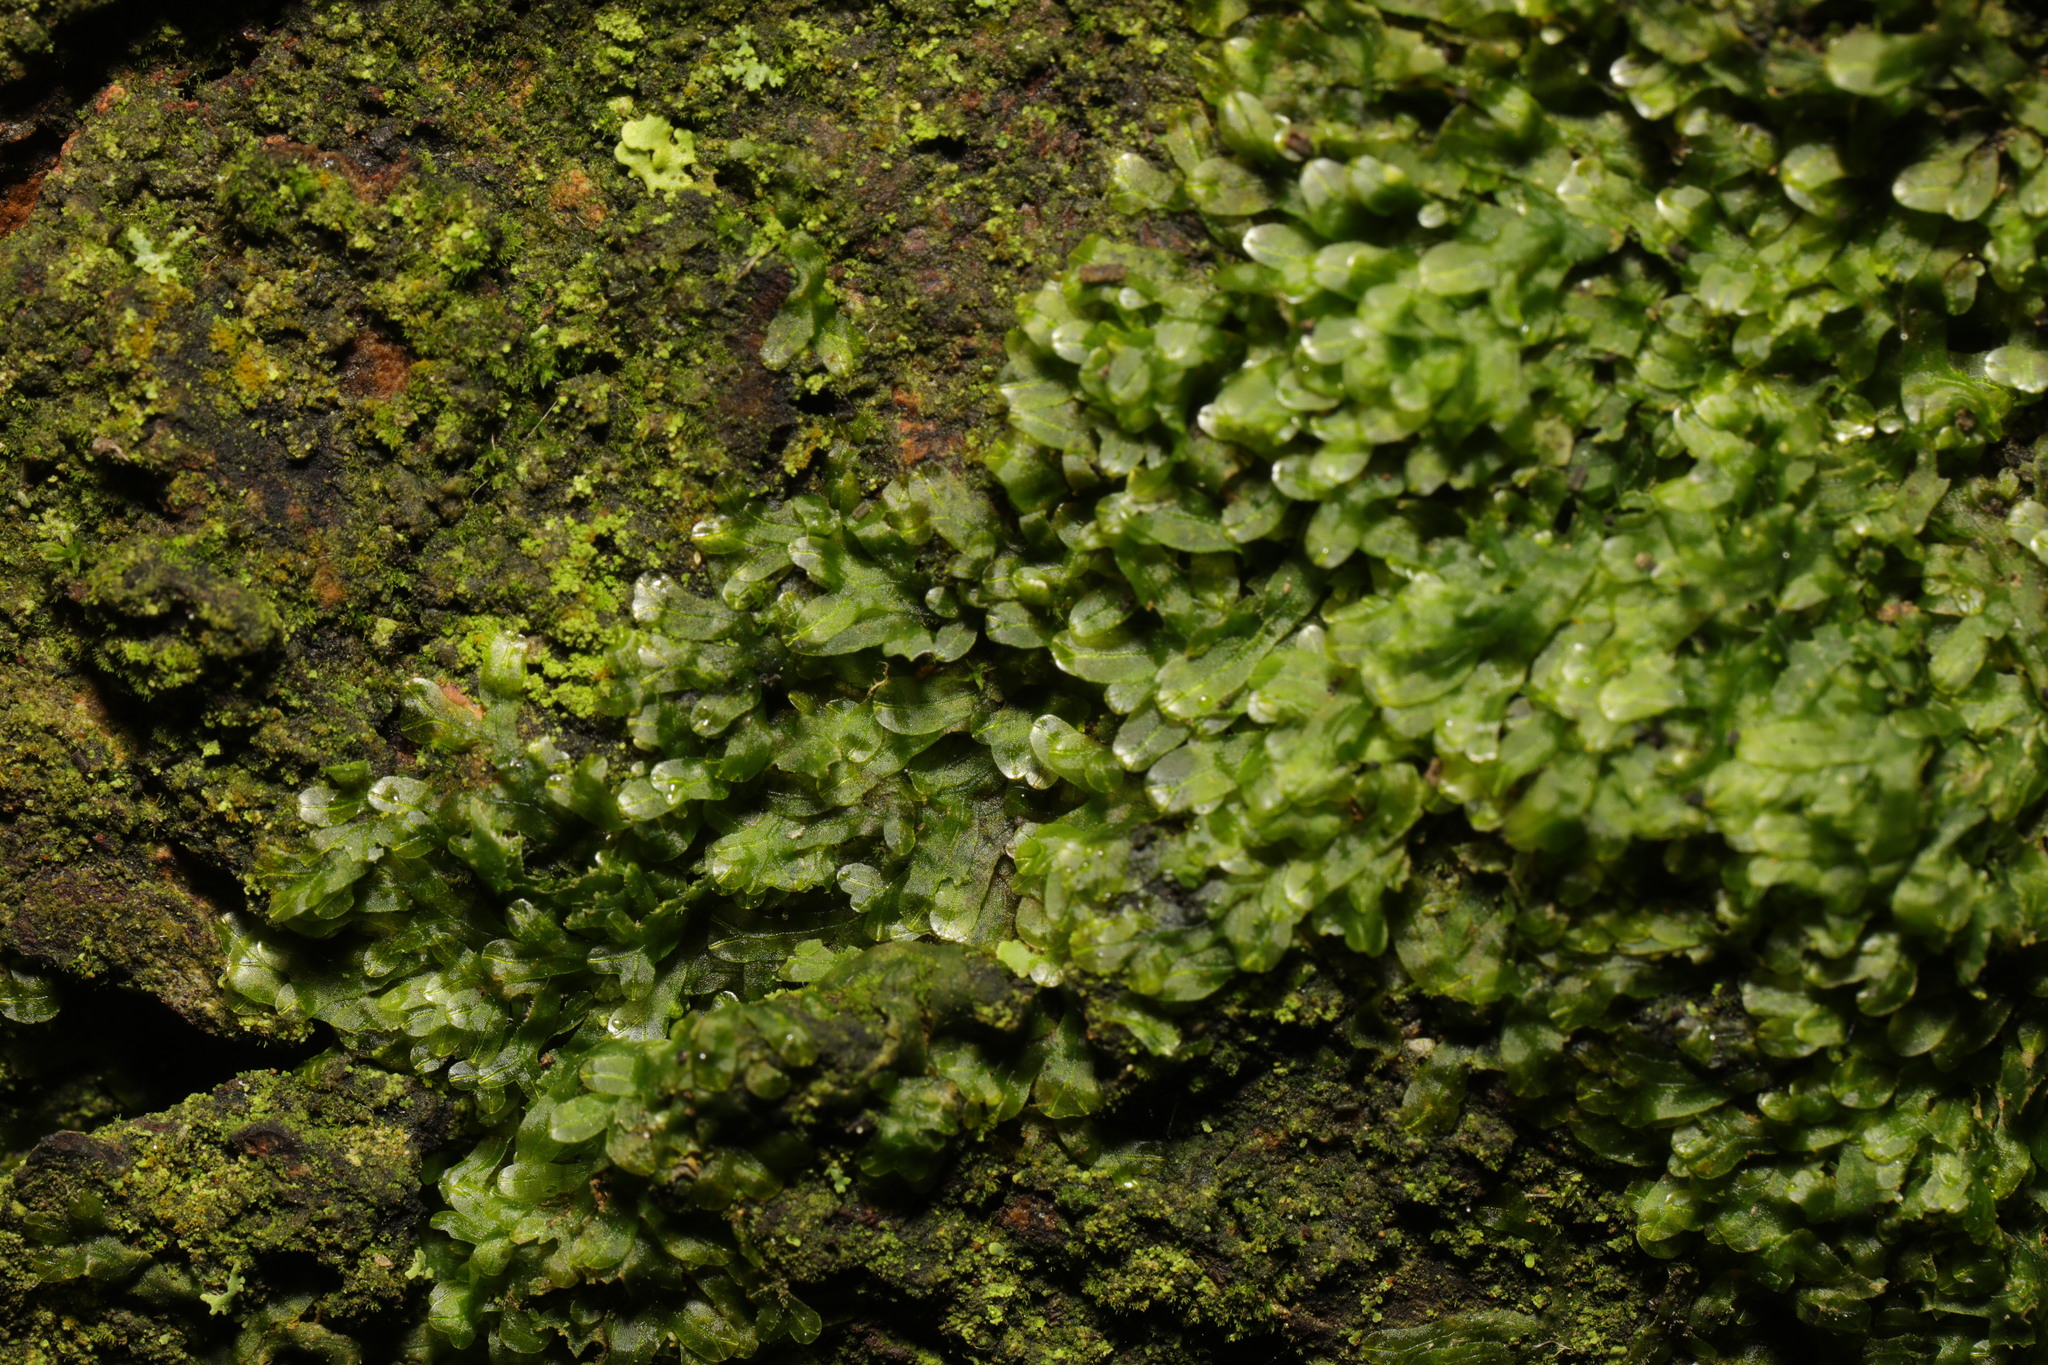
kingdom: Plantae
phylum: Marchantiophyta
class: Jungermanniopsida
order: Metzgeriales
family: Metzgeriaceae
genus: Metzgeria
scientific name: Metzgeria furcata
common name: Forked veilwort
